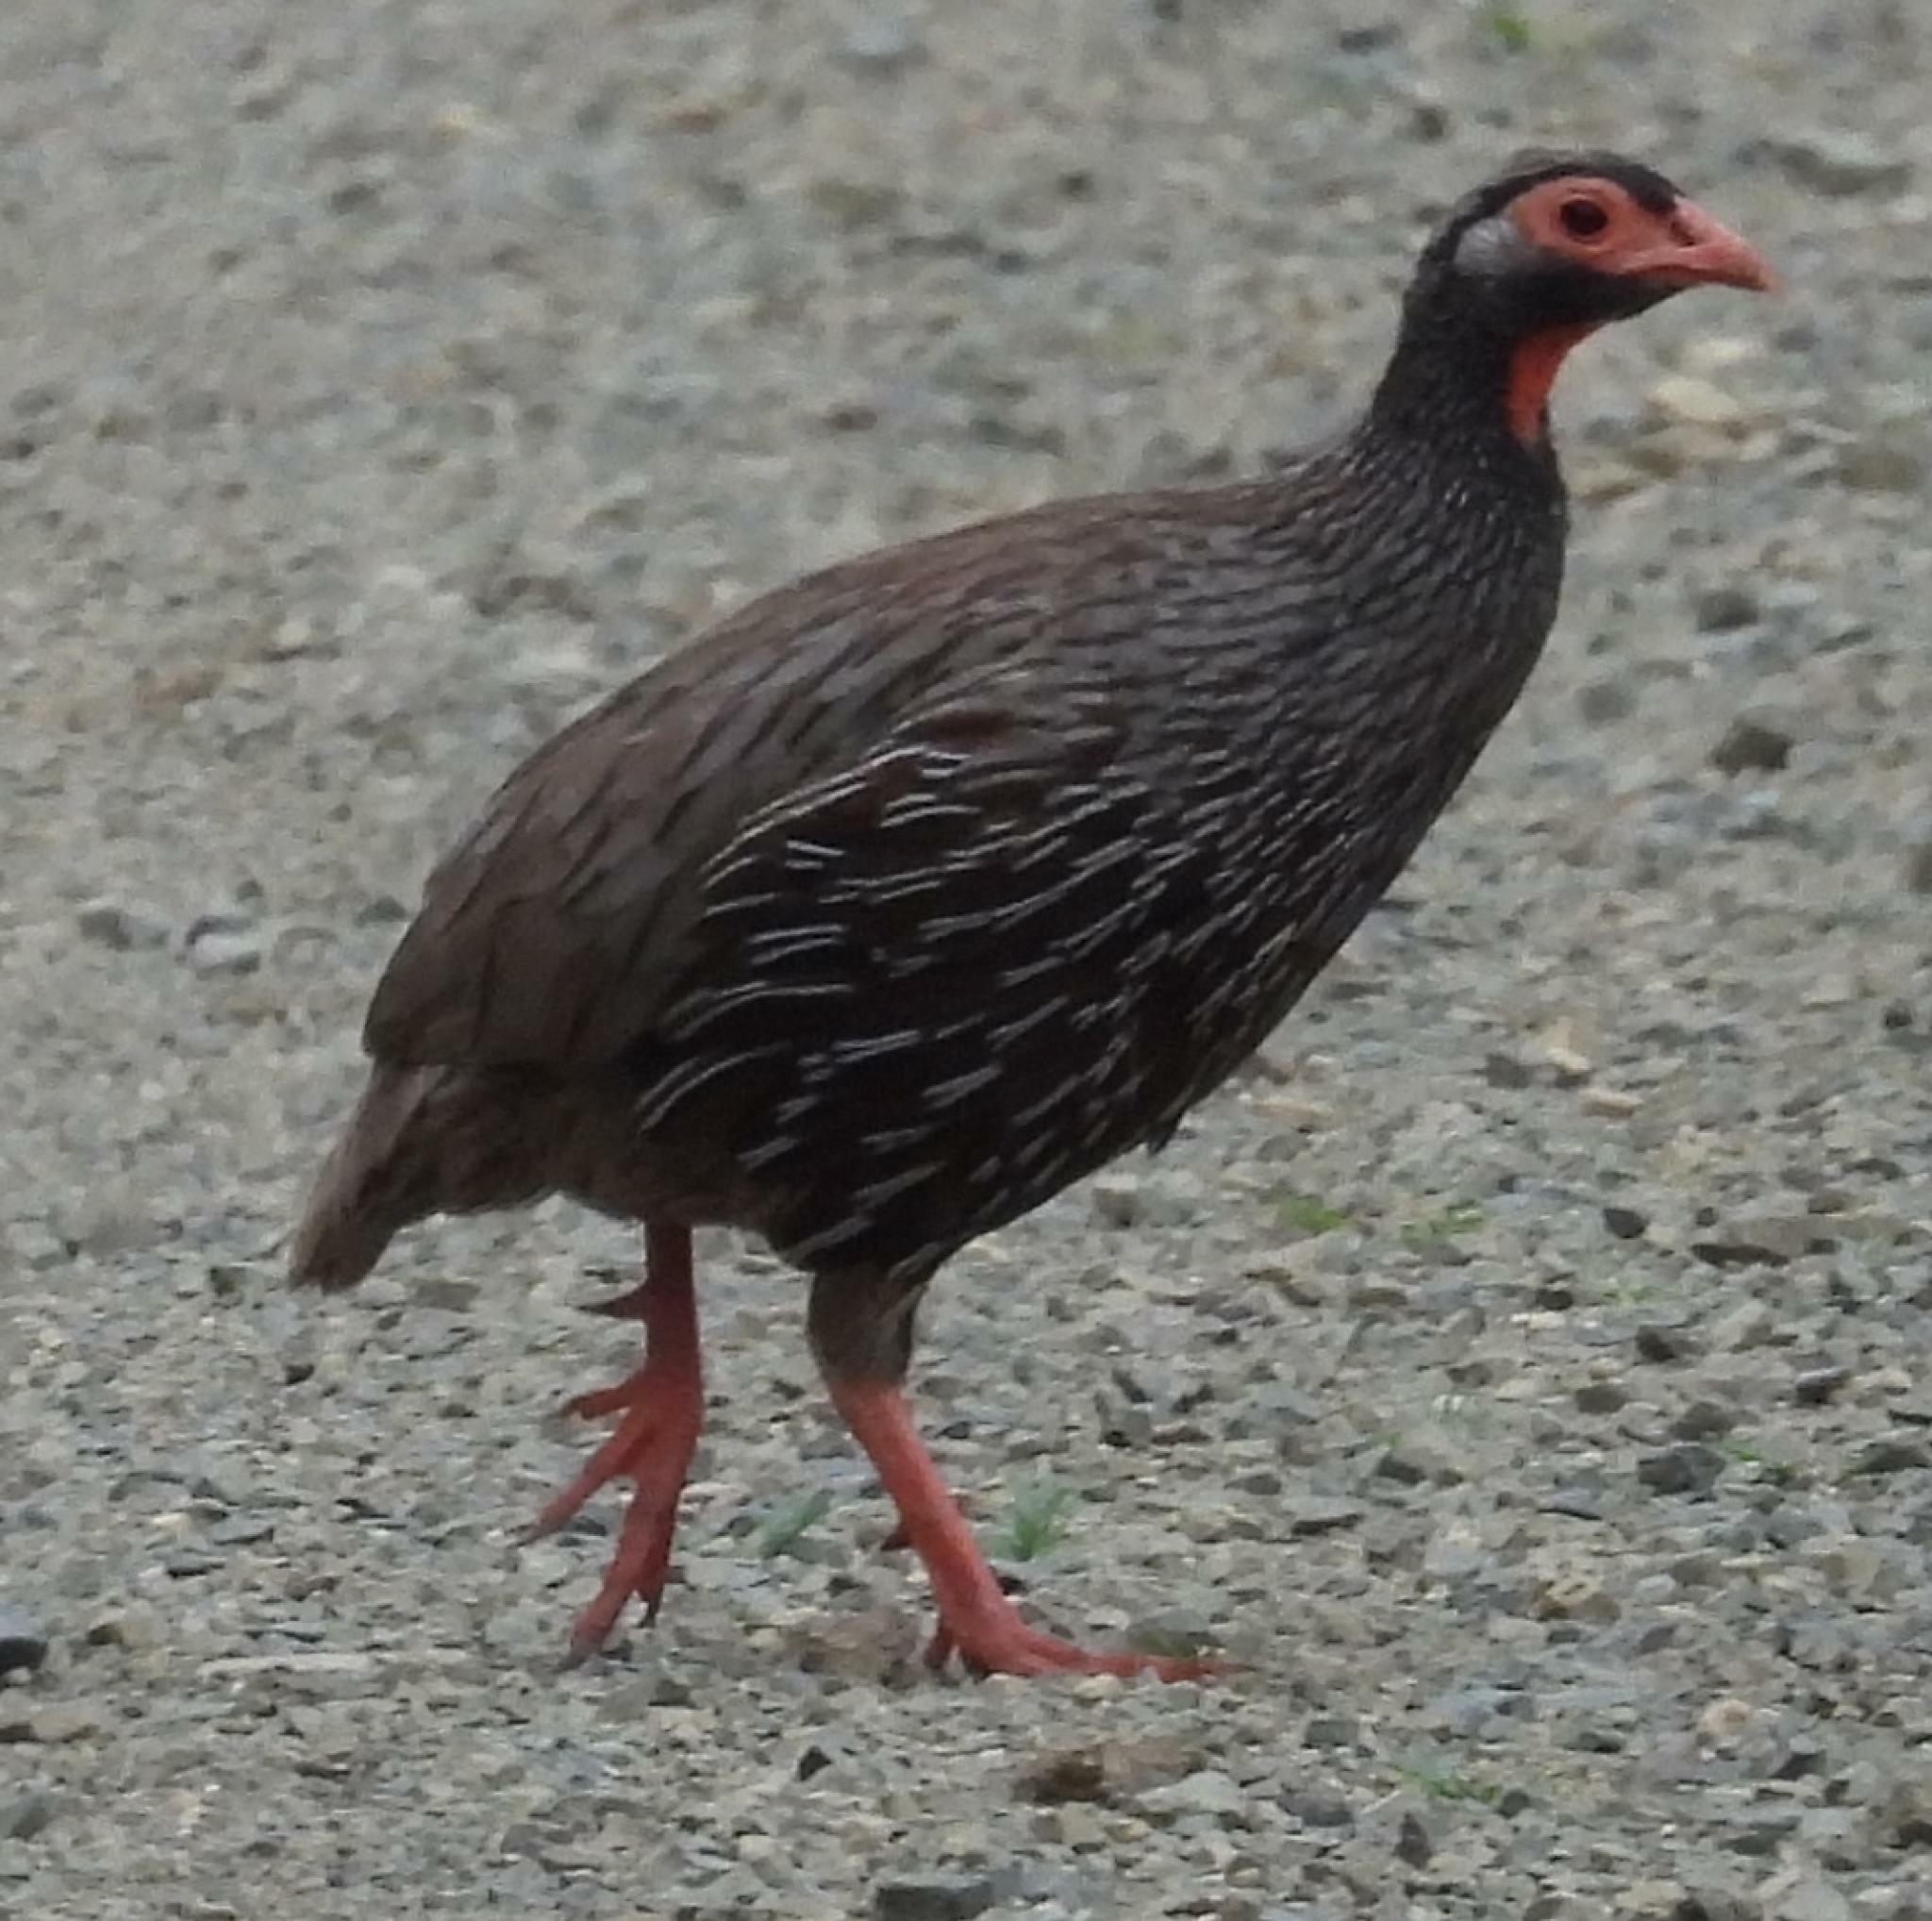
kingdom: Animalia
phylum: Chordata
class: Aves
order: Galliformes
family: Phasianidae
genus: Pternistis
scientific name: Pternistis afer
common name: Red-necked spurfowl
